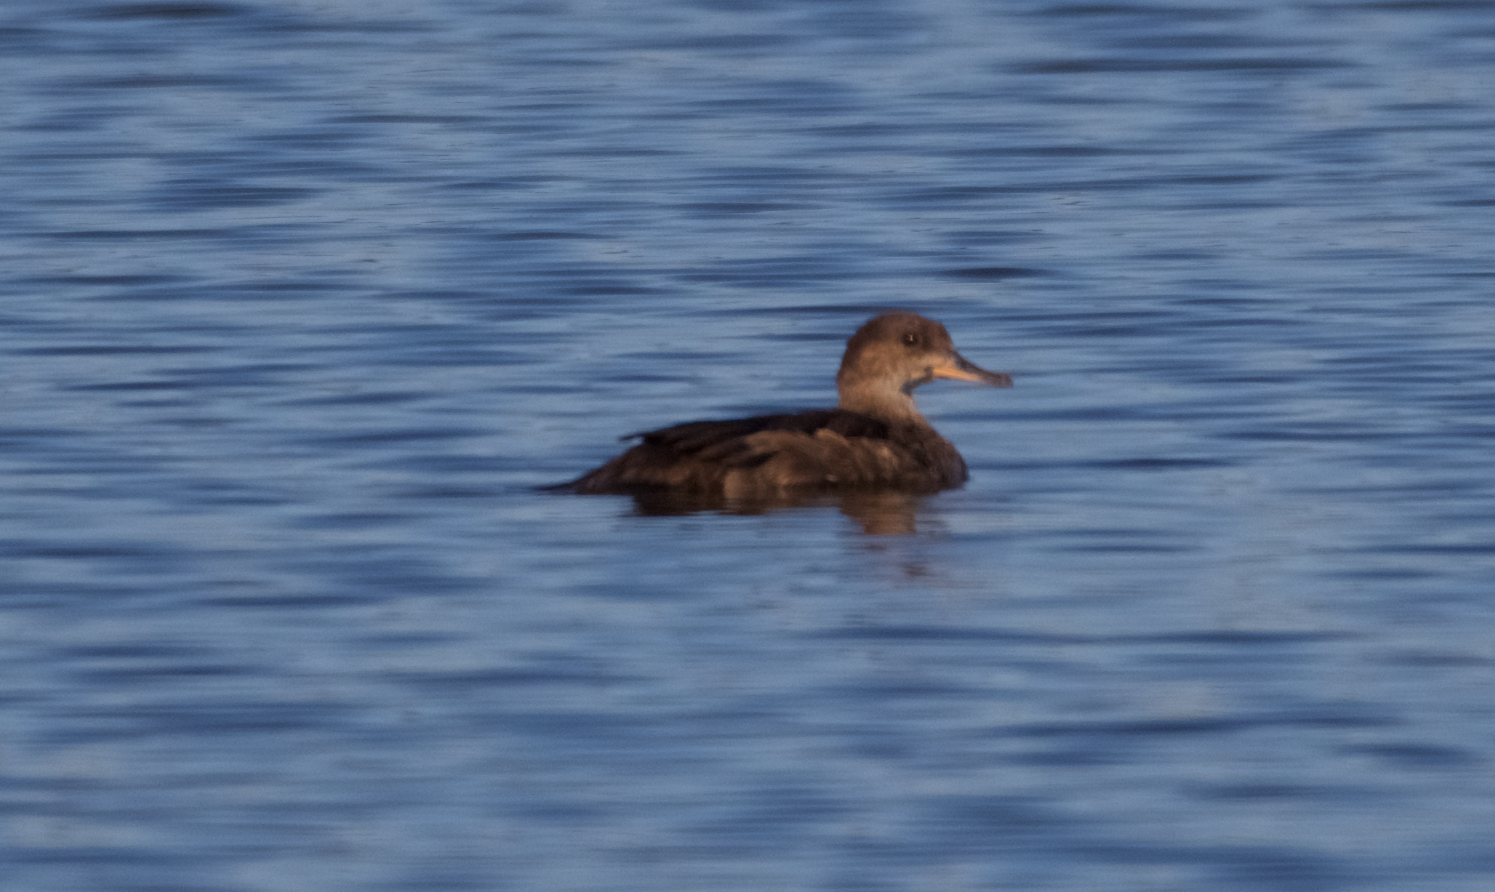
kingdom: Animalia
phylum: Chordata
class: Aves
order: Anseriformes
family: Anatidae
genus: Lophodytes
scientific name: Lophodytes cucullatus
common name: Hooded merganser
